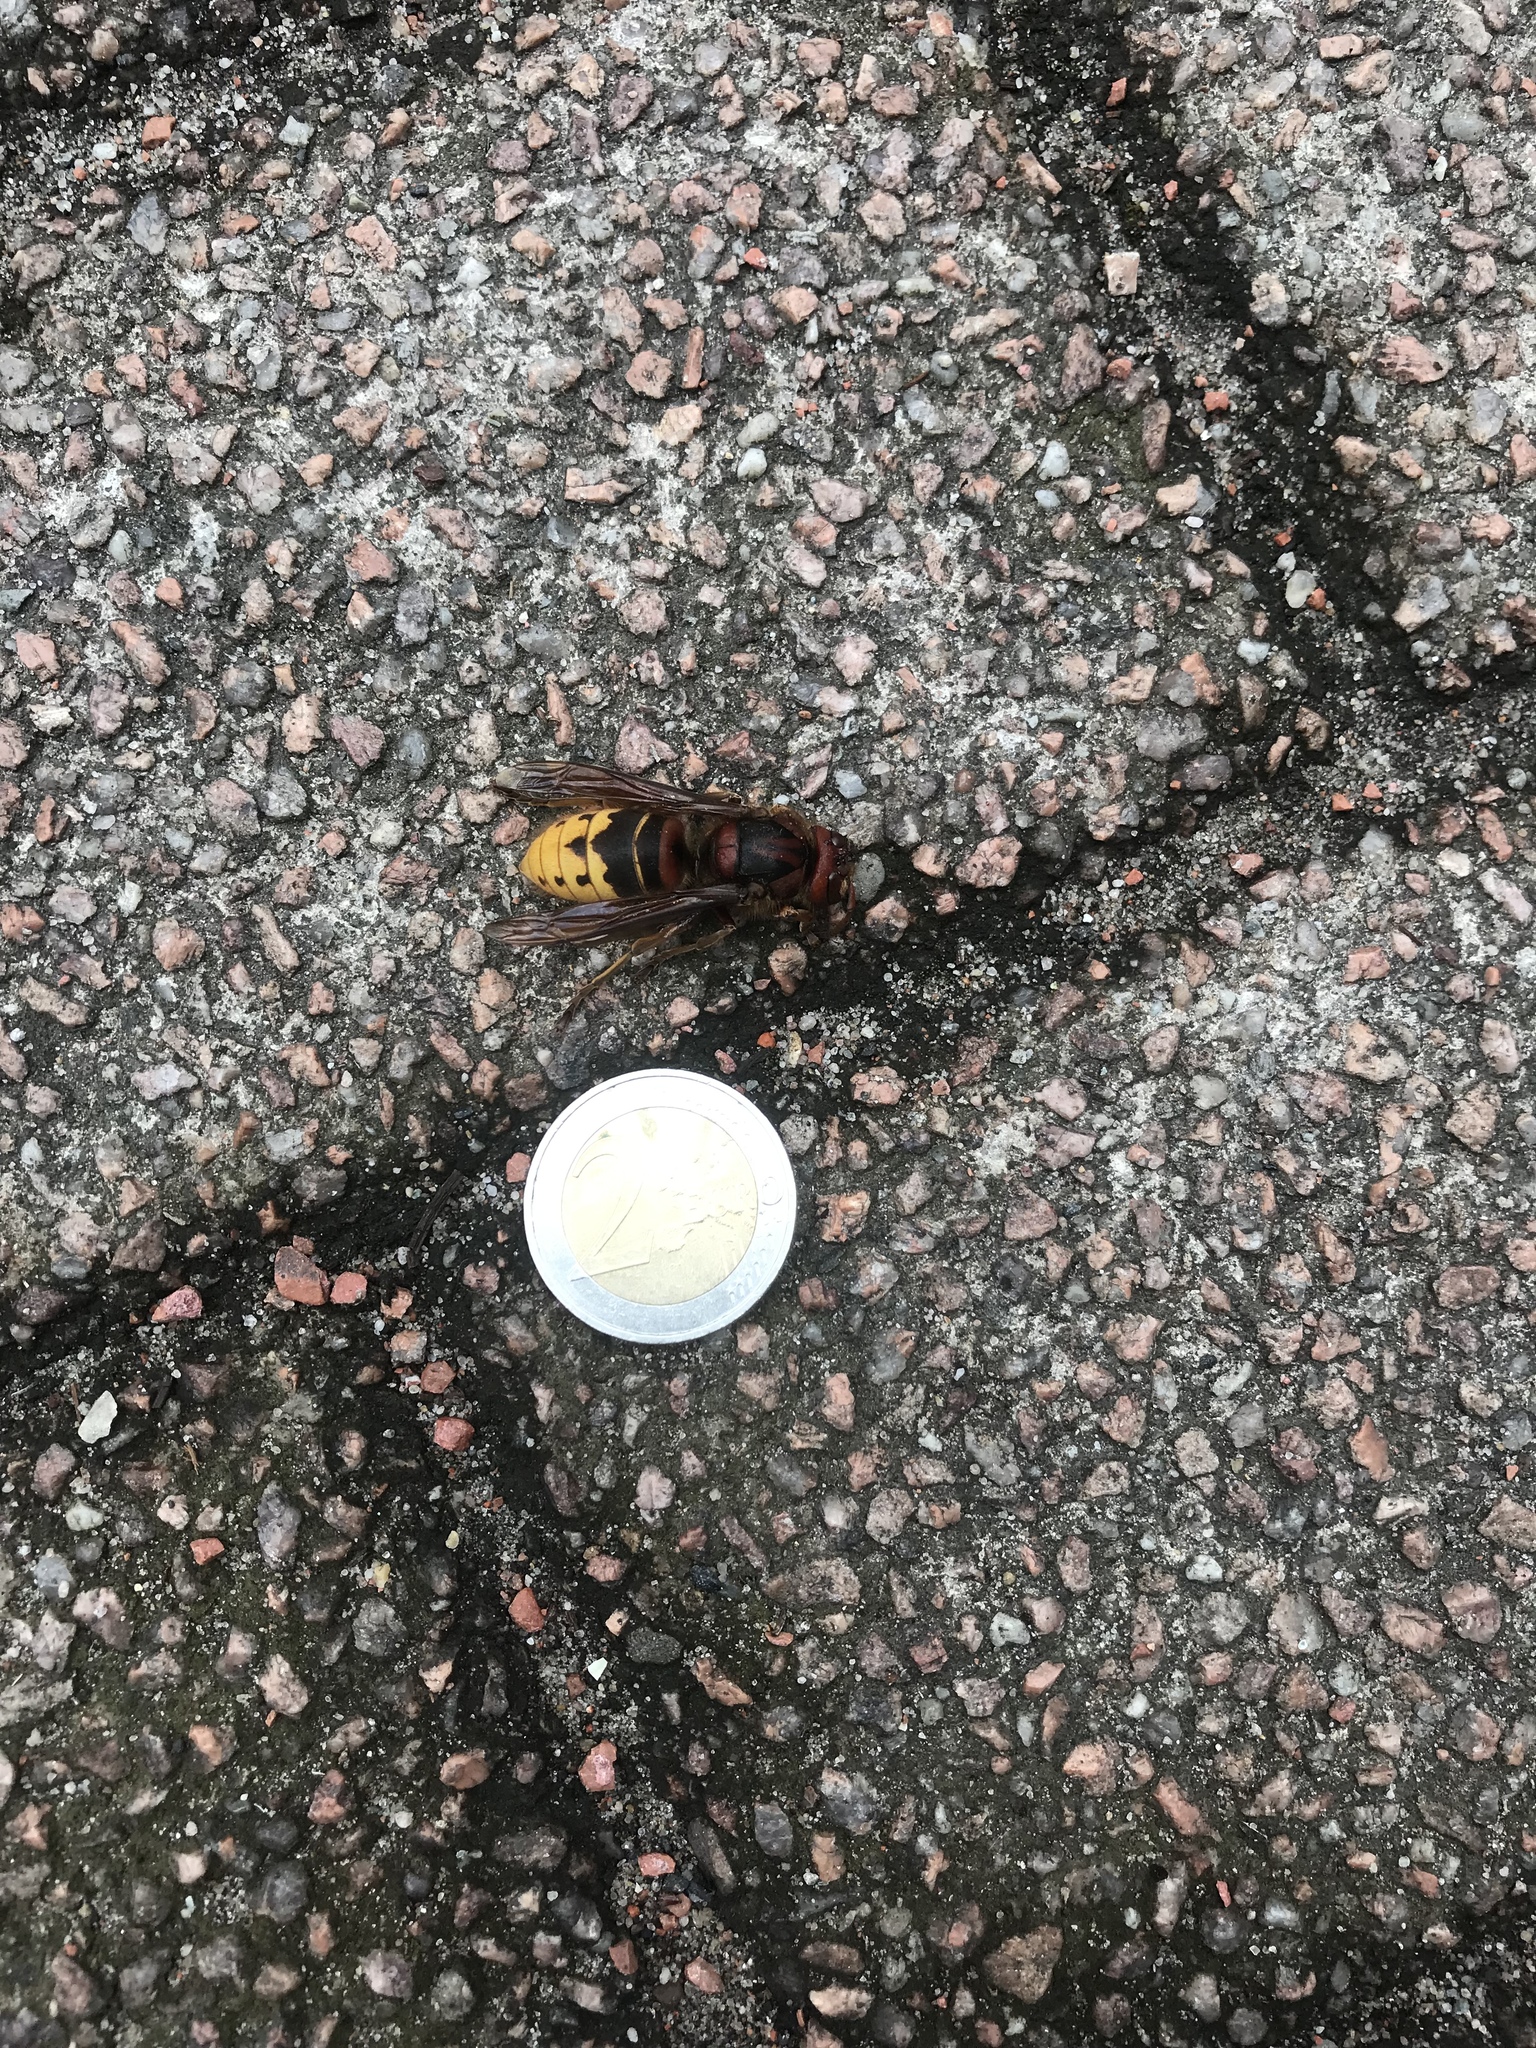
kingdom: Animalia
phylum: Arthropoda
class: Insecta
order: Hymenoptera
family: Vespidae
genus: Vespa
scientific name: Vespa crabro
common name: Hornet
